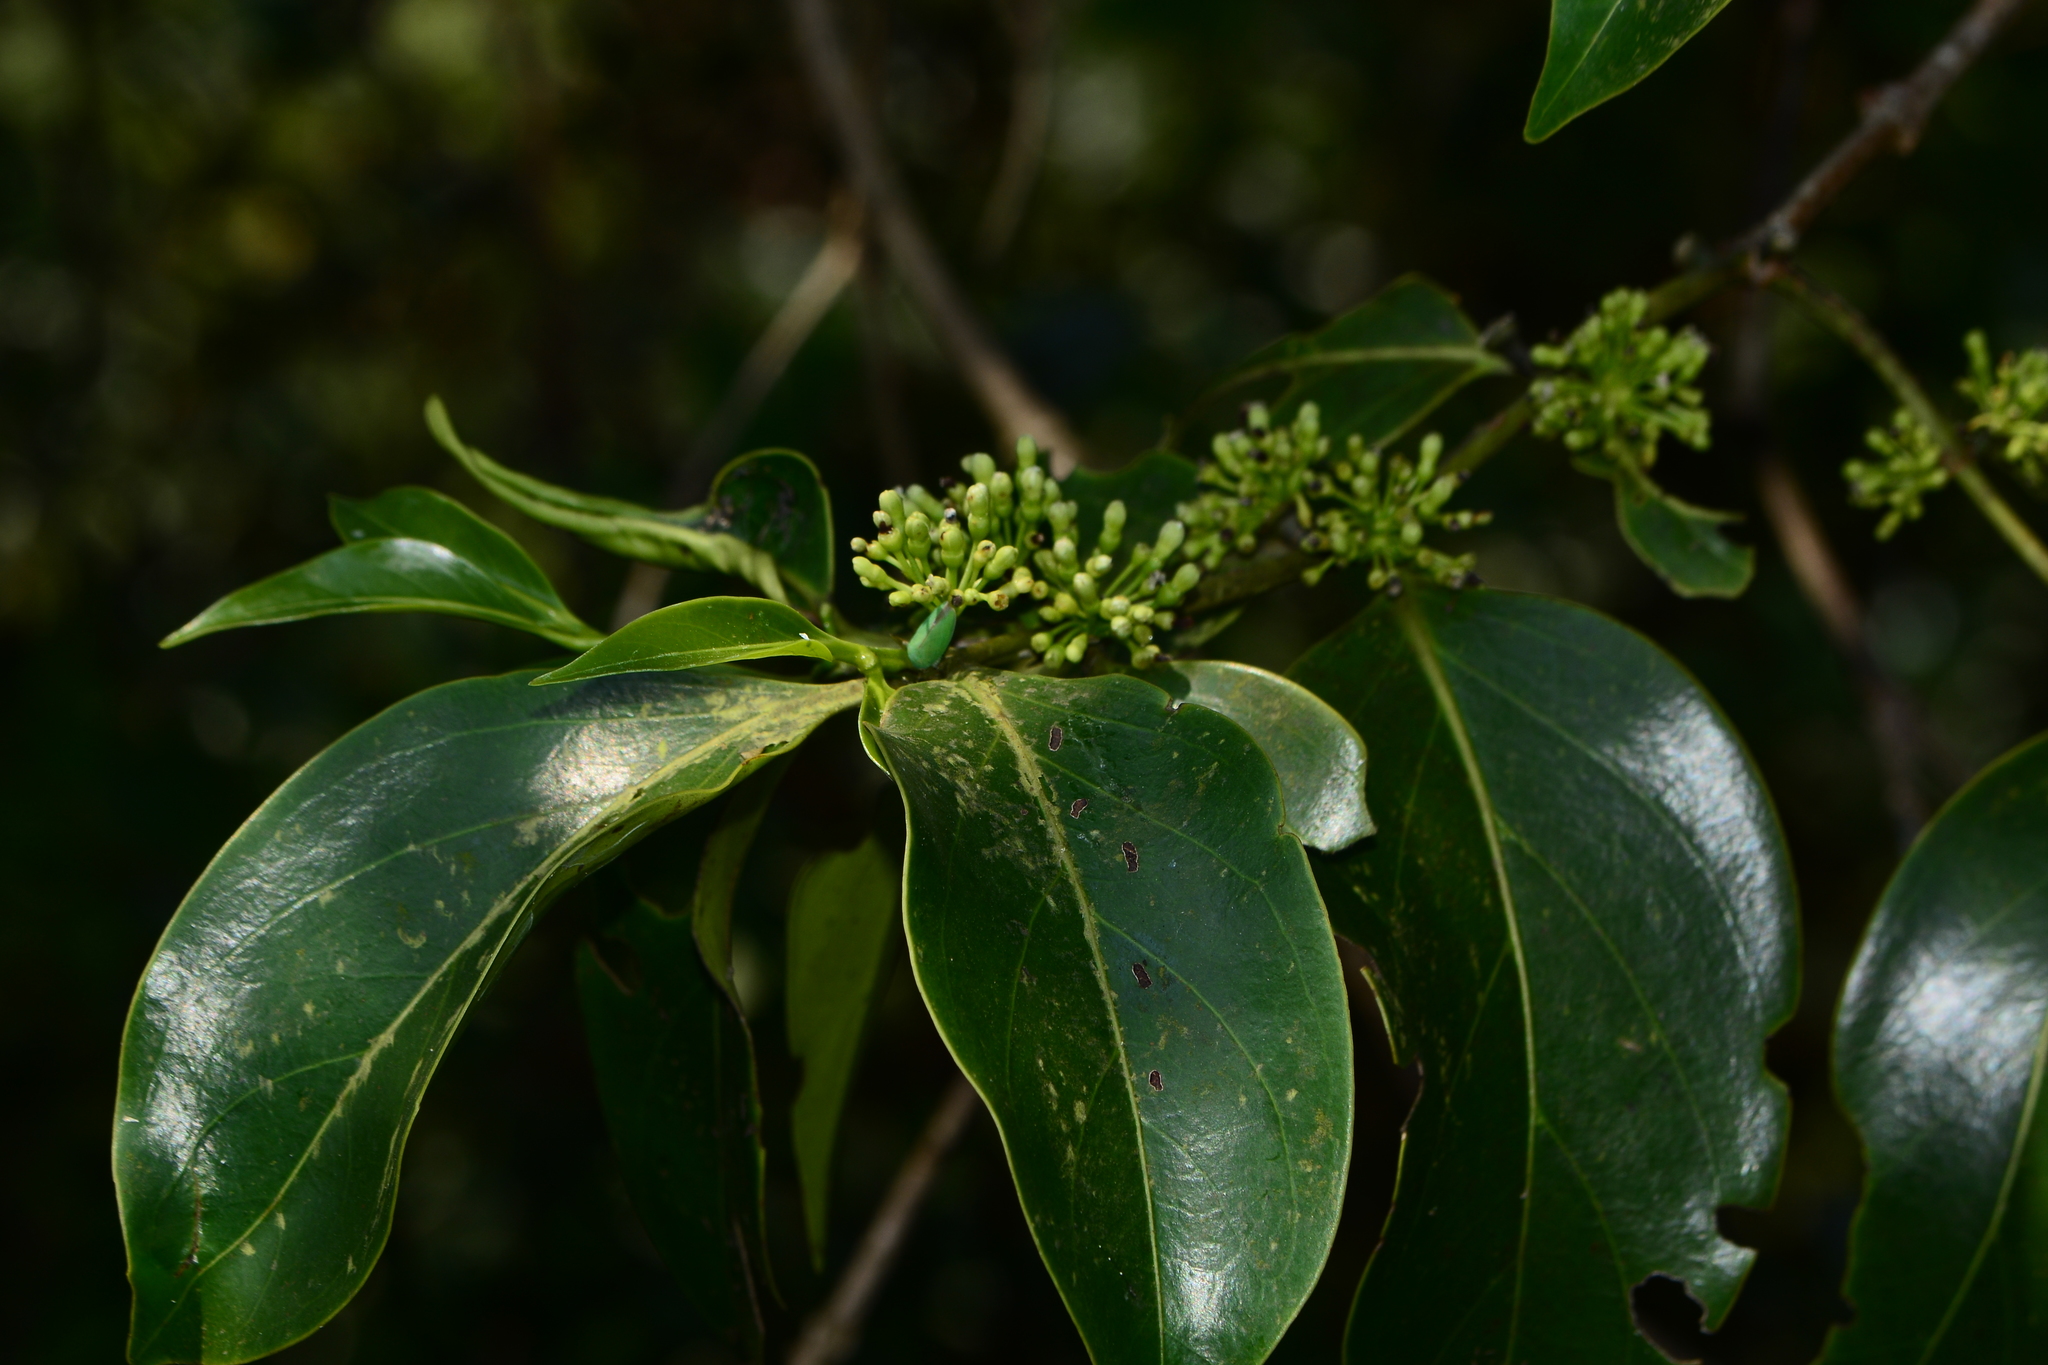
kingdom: Plantae
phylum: Tracheophyta
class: Magnoliopsida
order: Gentianales
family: Rubiaceae
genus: Psydrax
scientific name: Psydrax umbellatus
